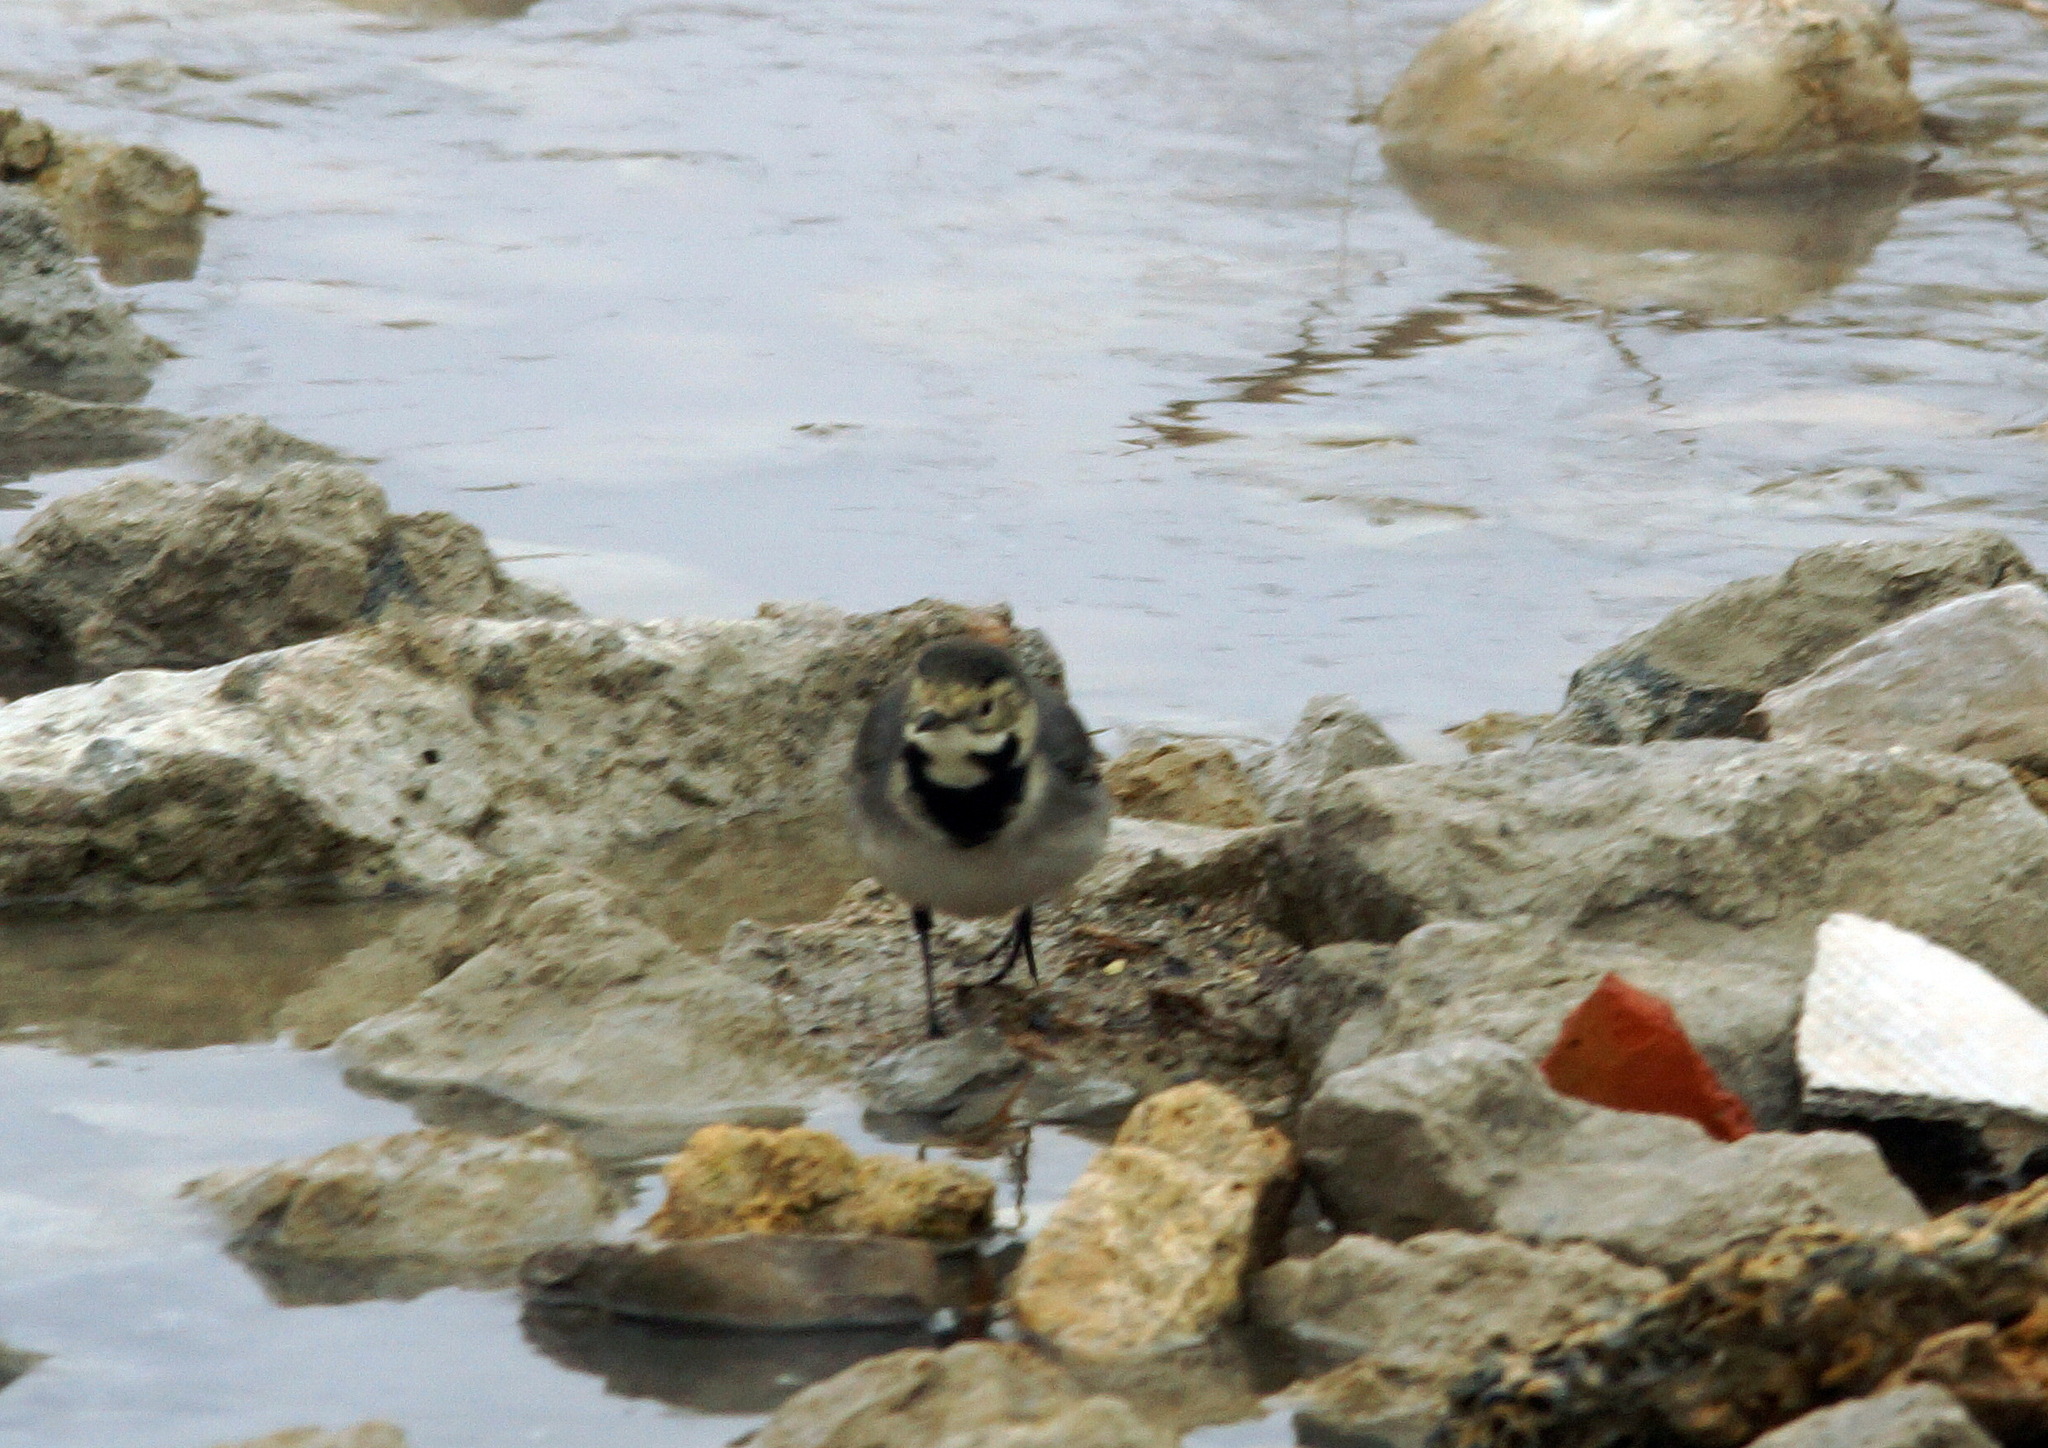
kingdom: Animalia
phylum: Chordata
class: Aves
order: Passeriformes
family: Motacillidae
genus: Motacilla
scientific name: Motacilla alba
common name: White wagtail
